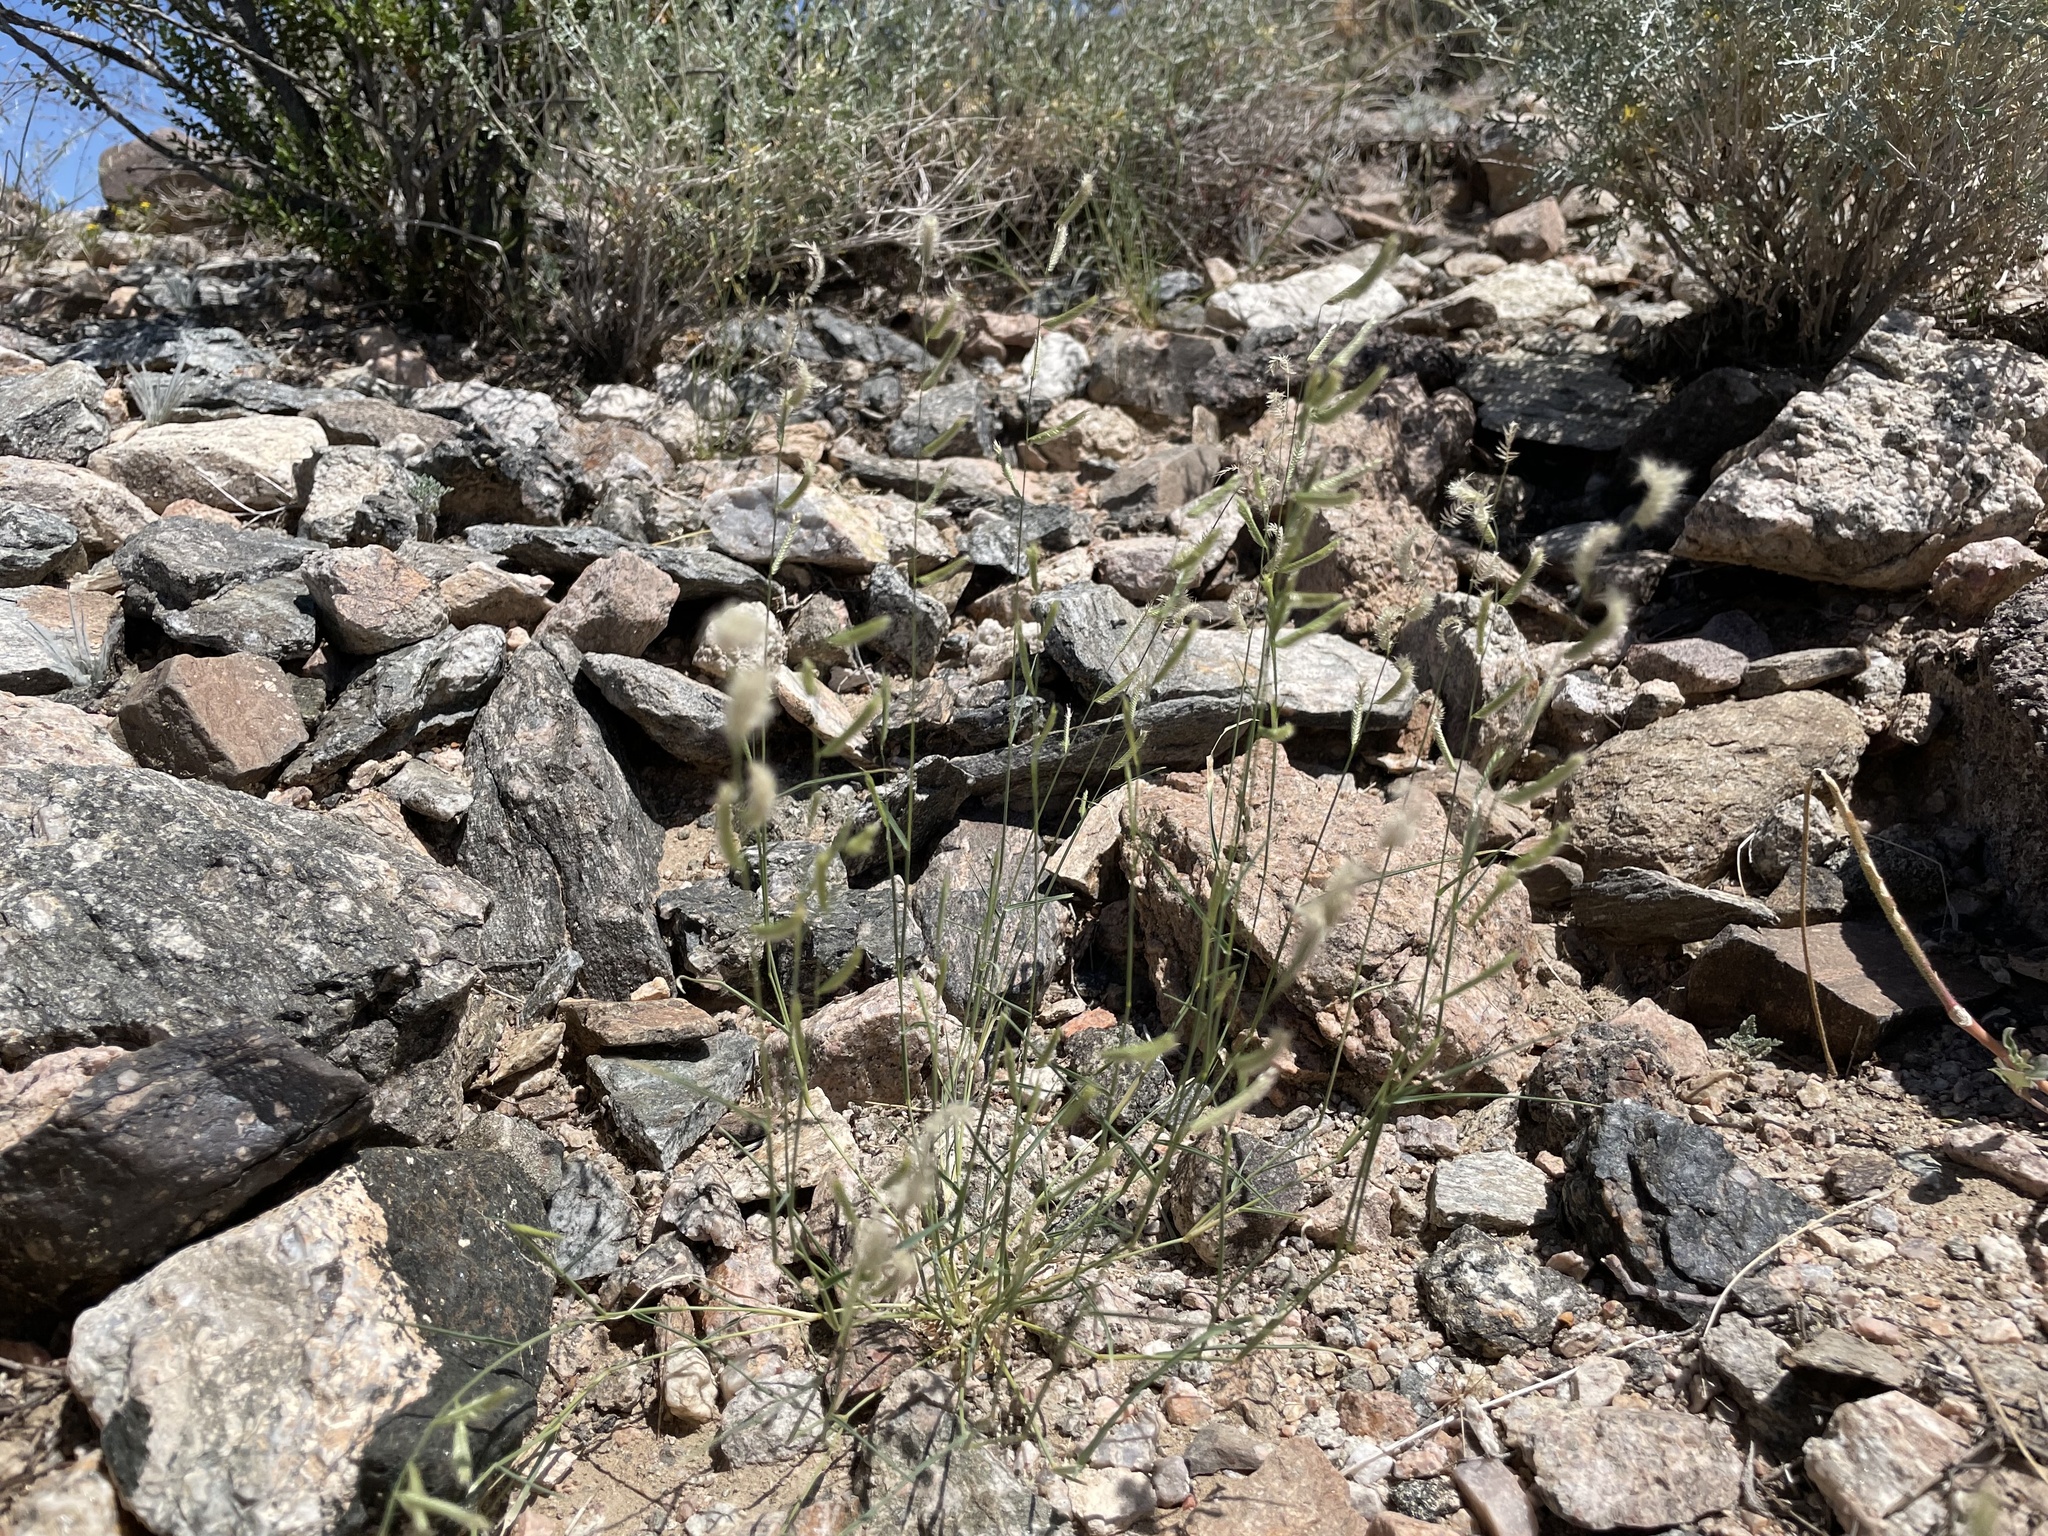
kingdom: Plantae
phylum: Tracheophyta
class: Liliopsida
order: Poales
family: Poaceae
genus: Bouteloua
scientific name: Bouteloua barbata
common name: Six-weeks grama
